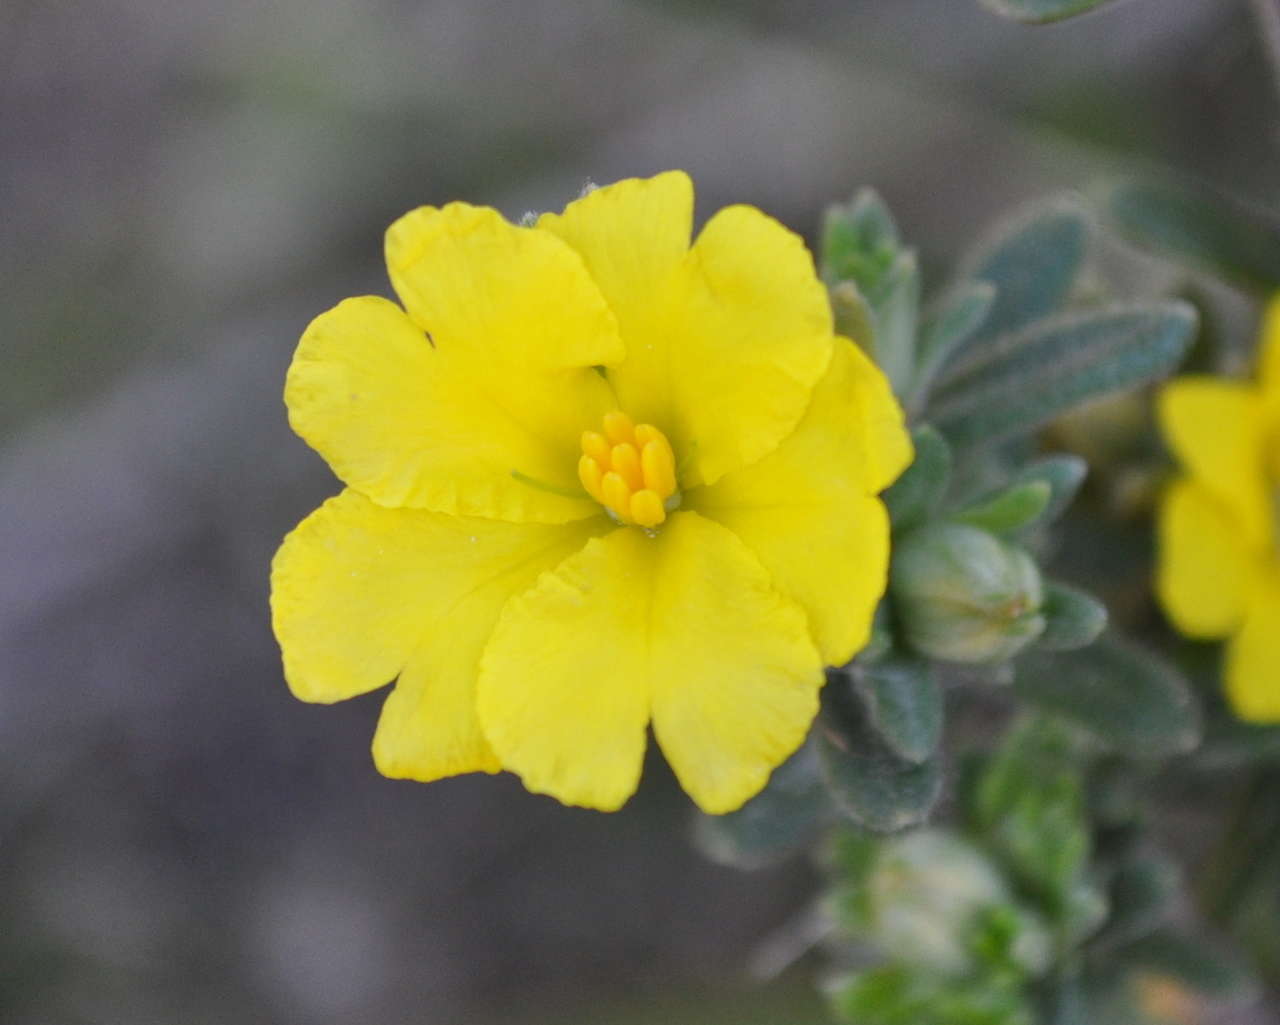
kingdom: Plantae
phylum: Tracheophyta
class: Magnoliopsida
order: Dilleniales
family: Dilleniaceae
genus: Hibbertia
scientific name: Hibbertia sericea
